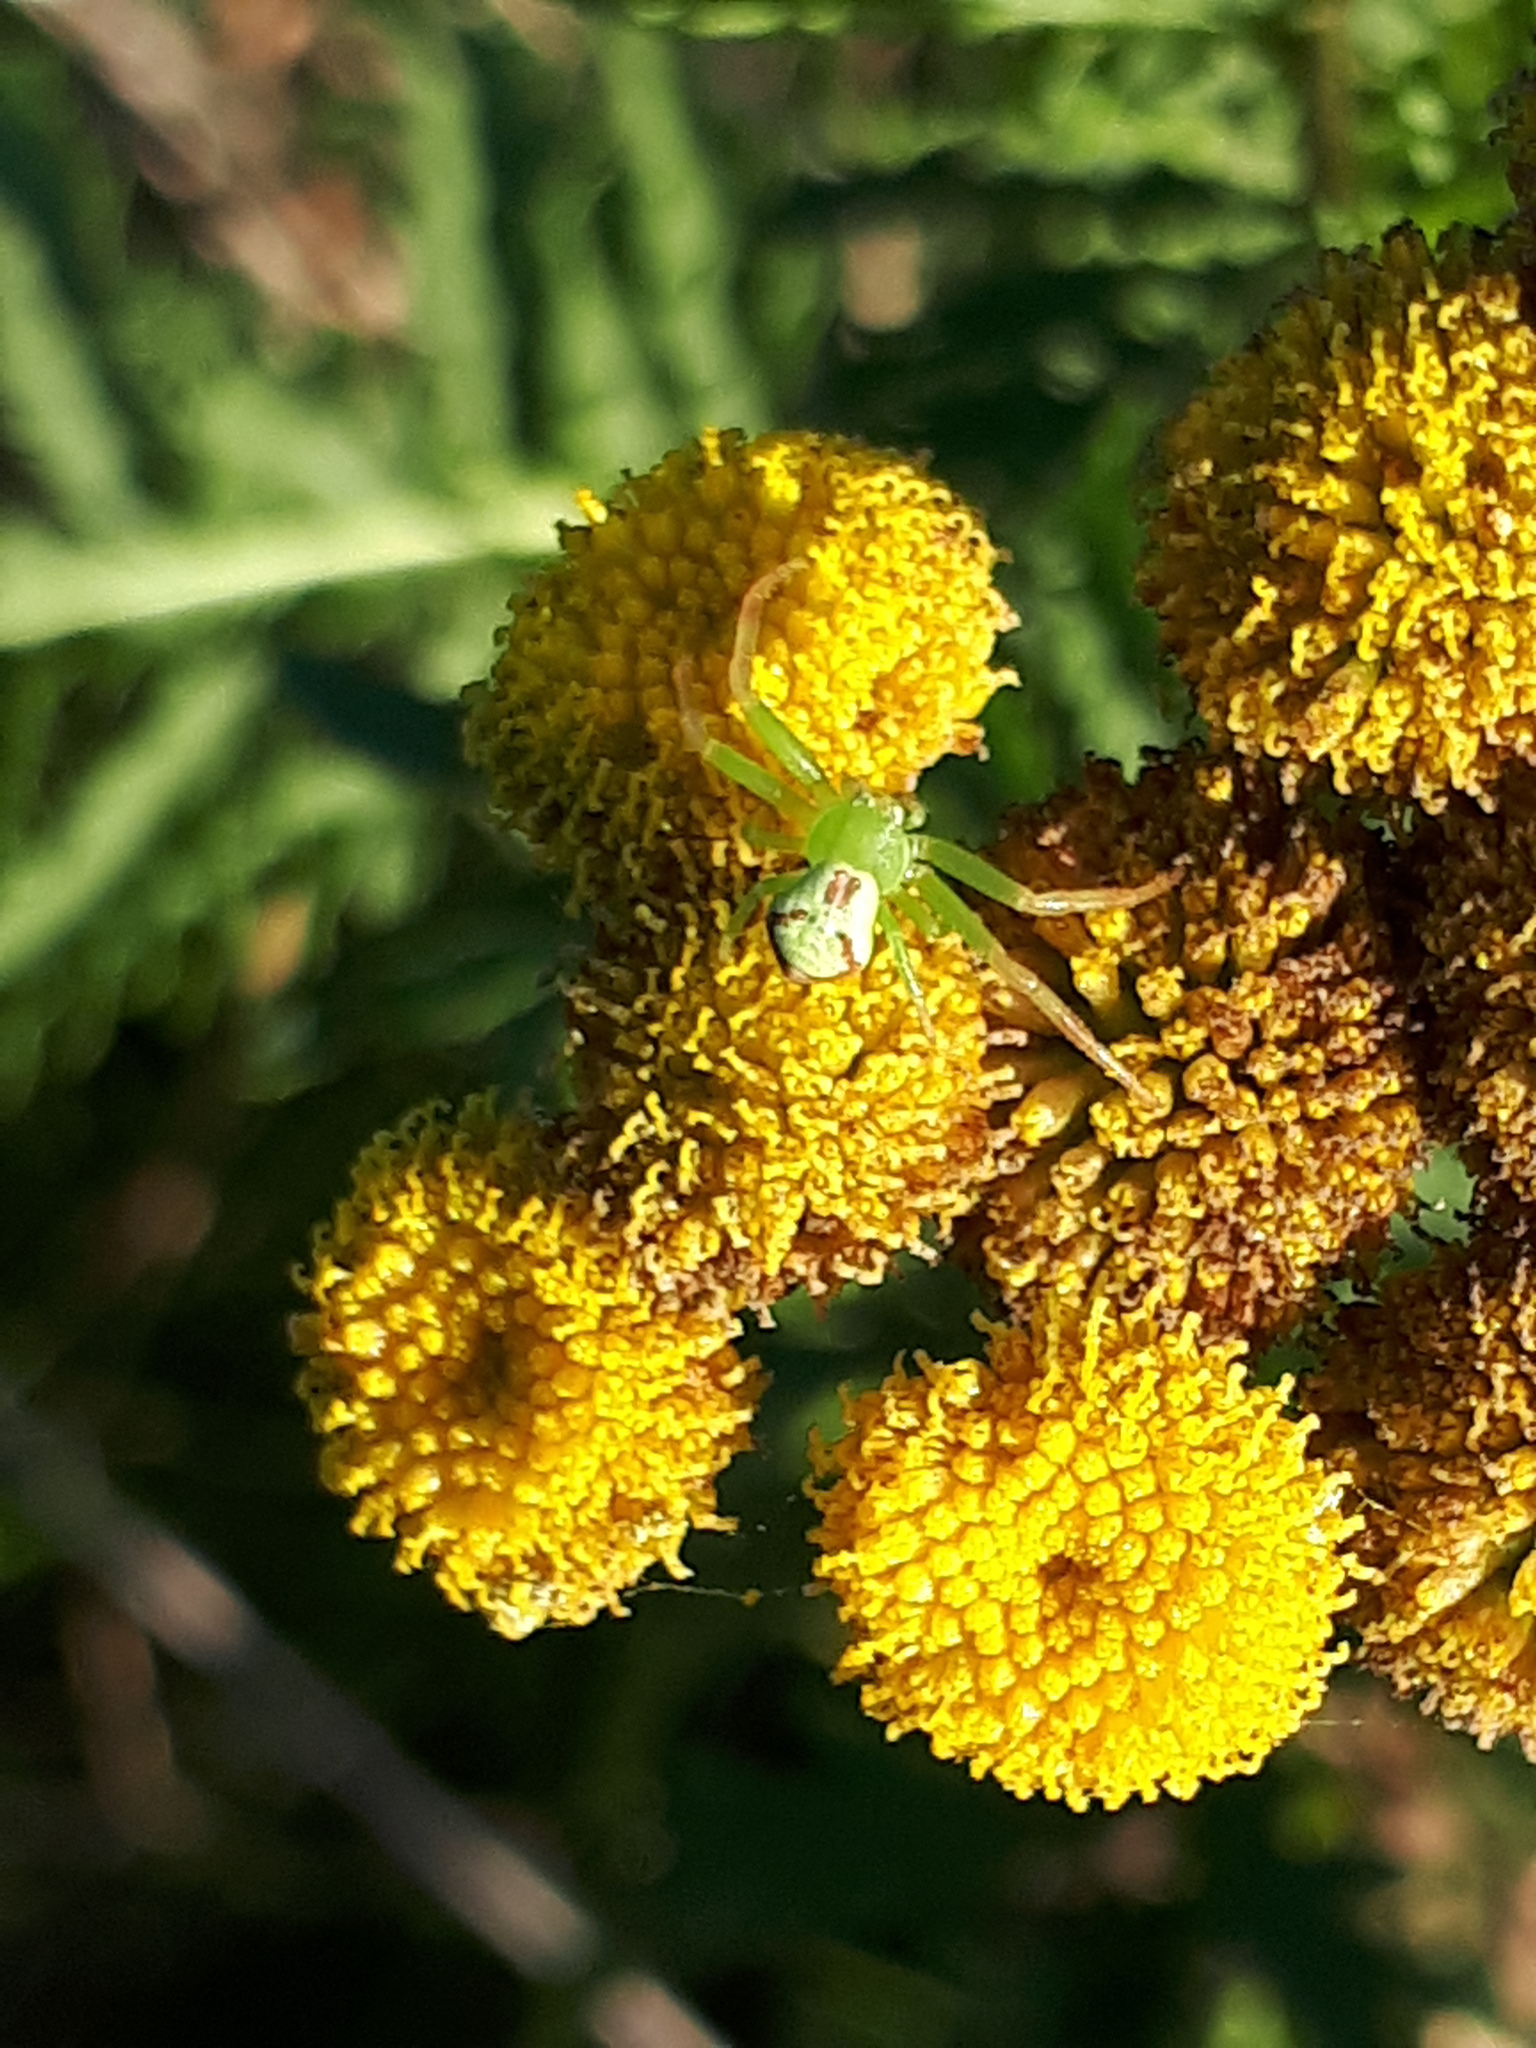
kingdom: Animalia
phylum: Arthropoda
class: Arachnida
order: Araneae
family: Thomisidae
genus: Ebrechtella
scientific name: Ebrechtella tricuspidata
